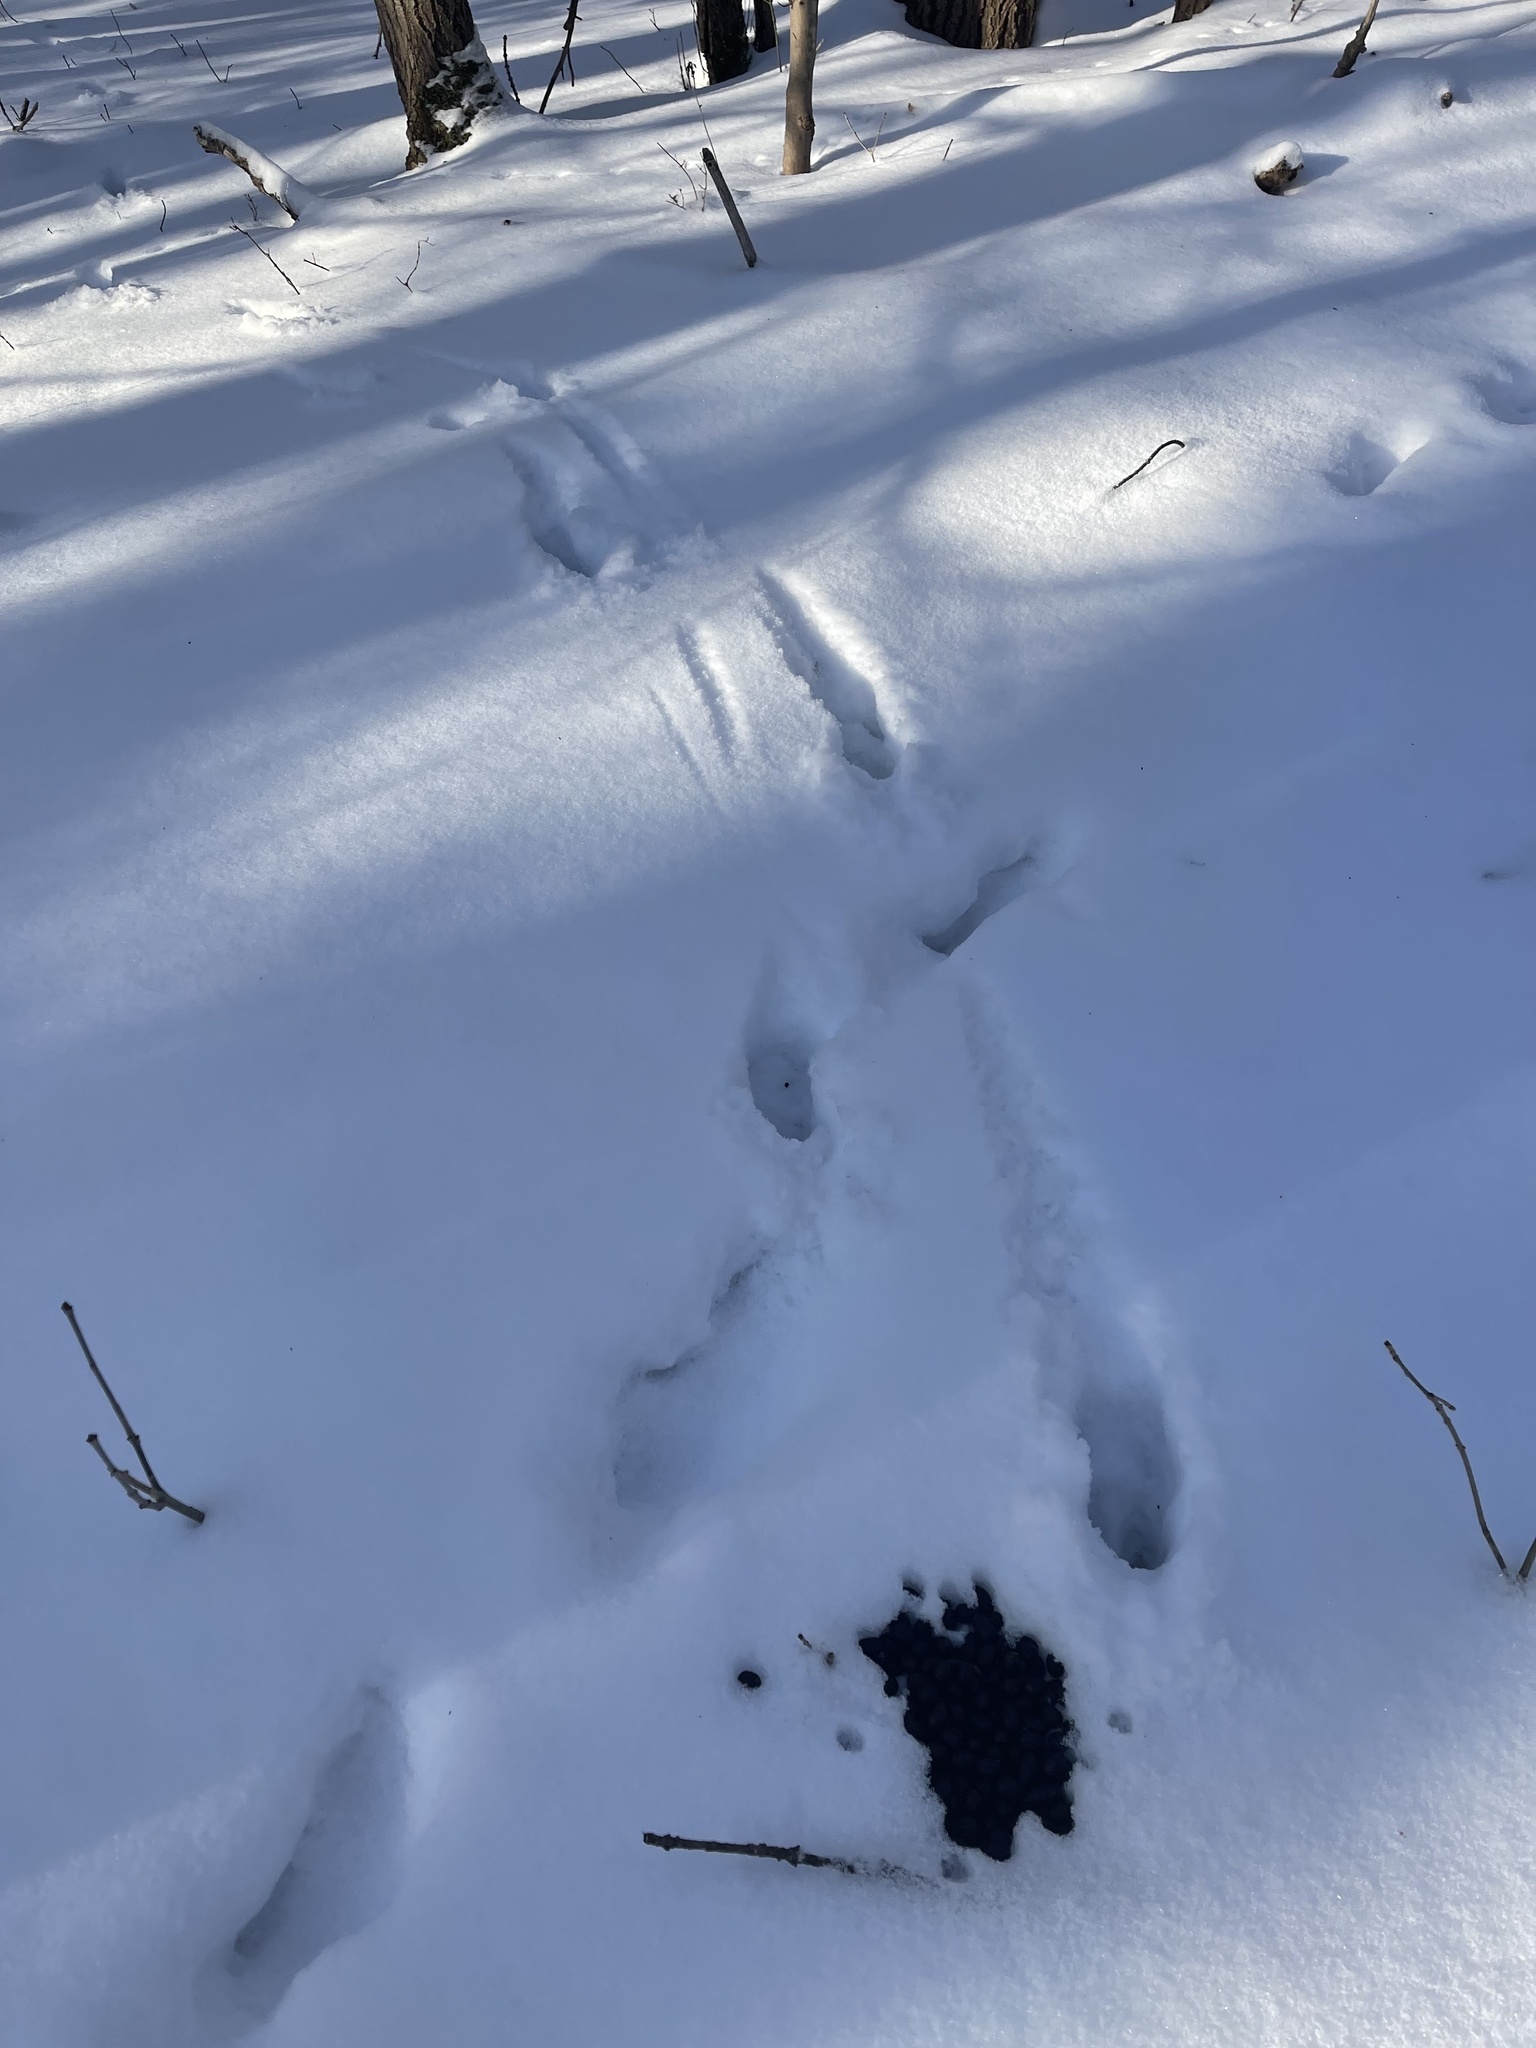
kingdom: Animalia
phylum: Chordata
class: Mammalia
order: Artiodactyla
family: Cervidae
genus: Odocoileus
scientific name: Odocoileus virginianus
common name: White-tailed deer
